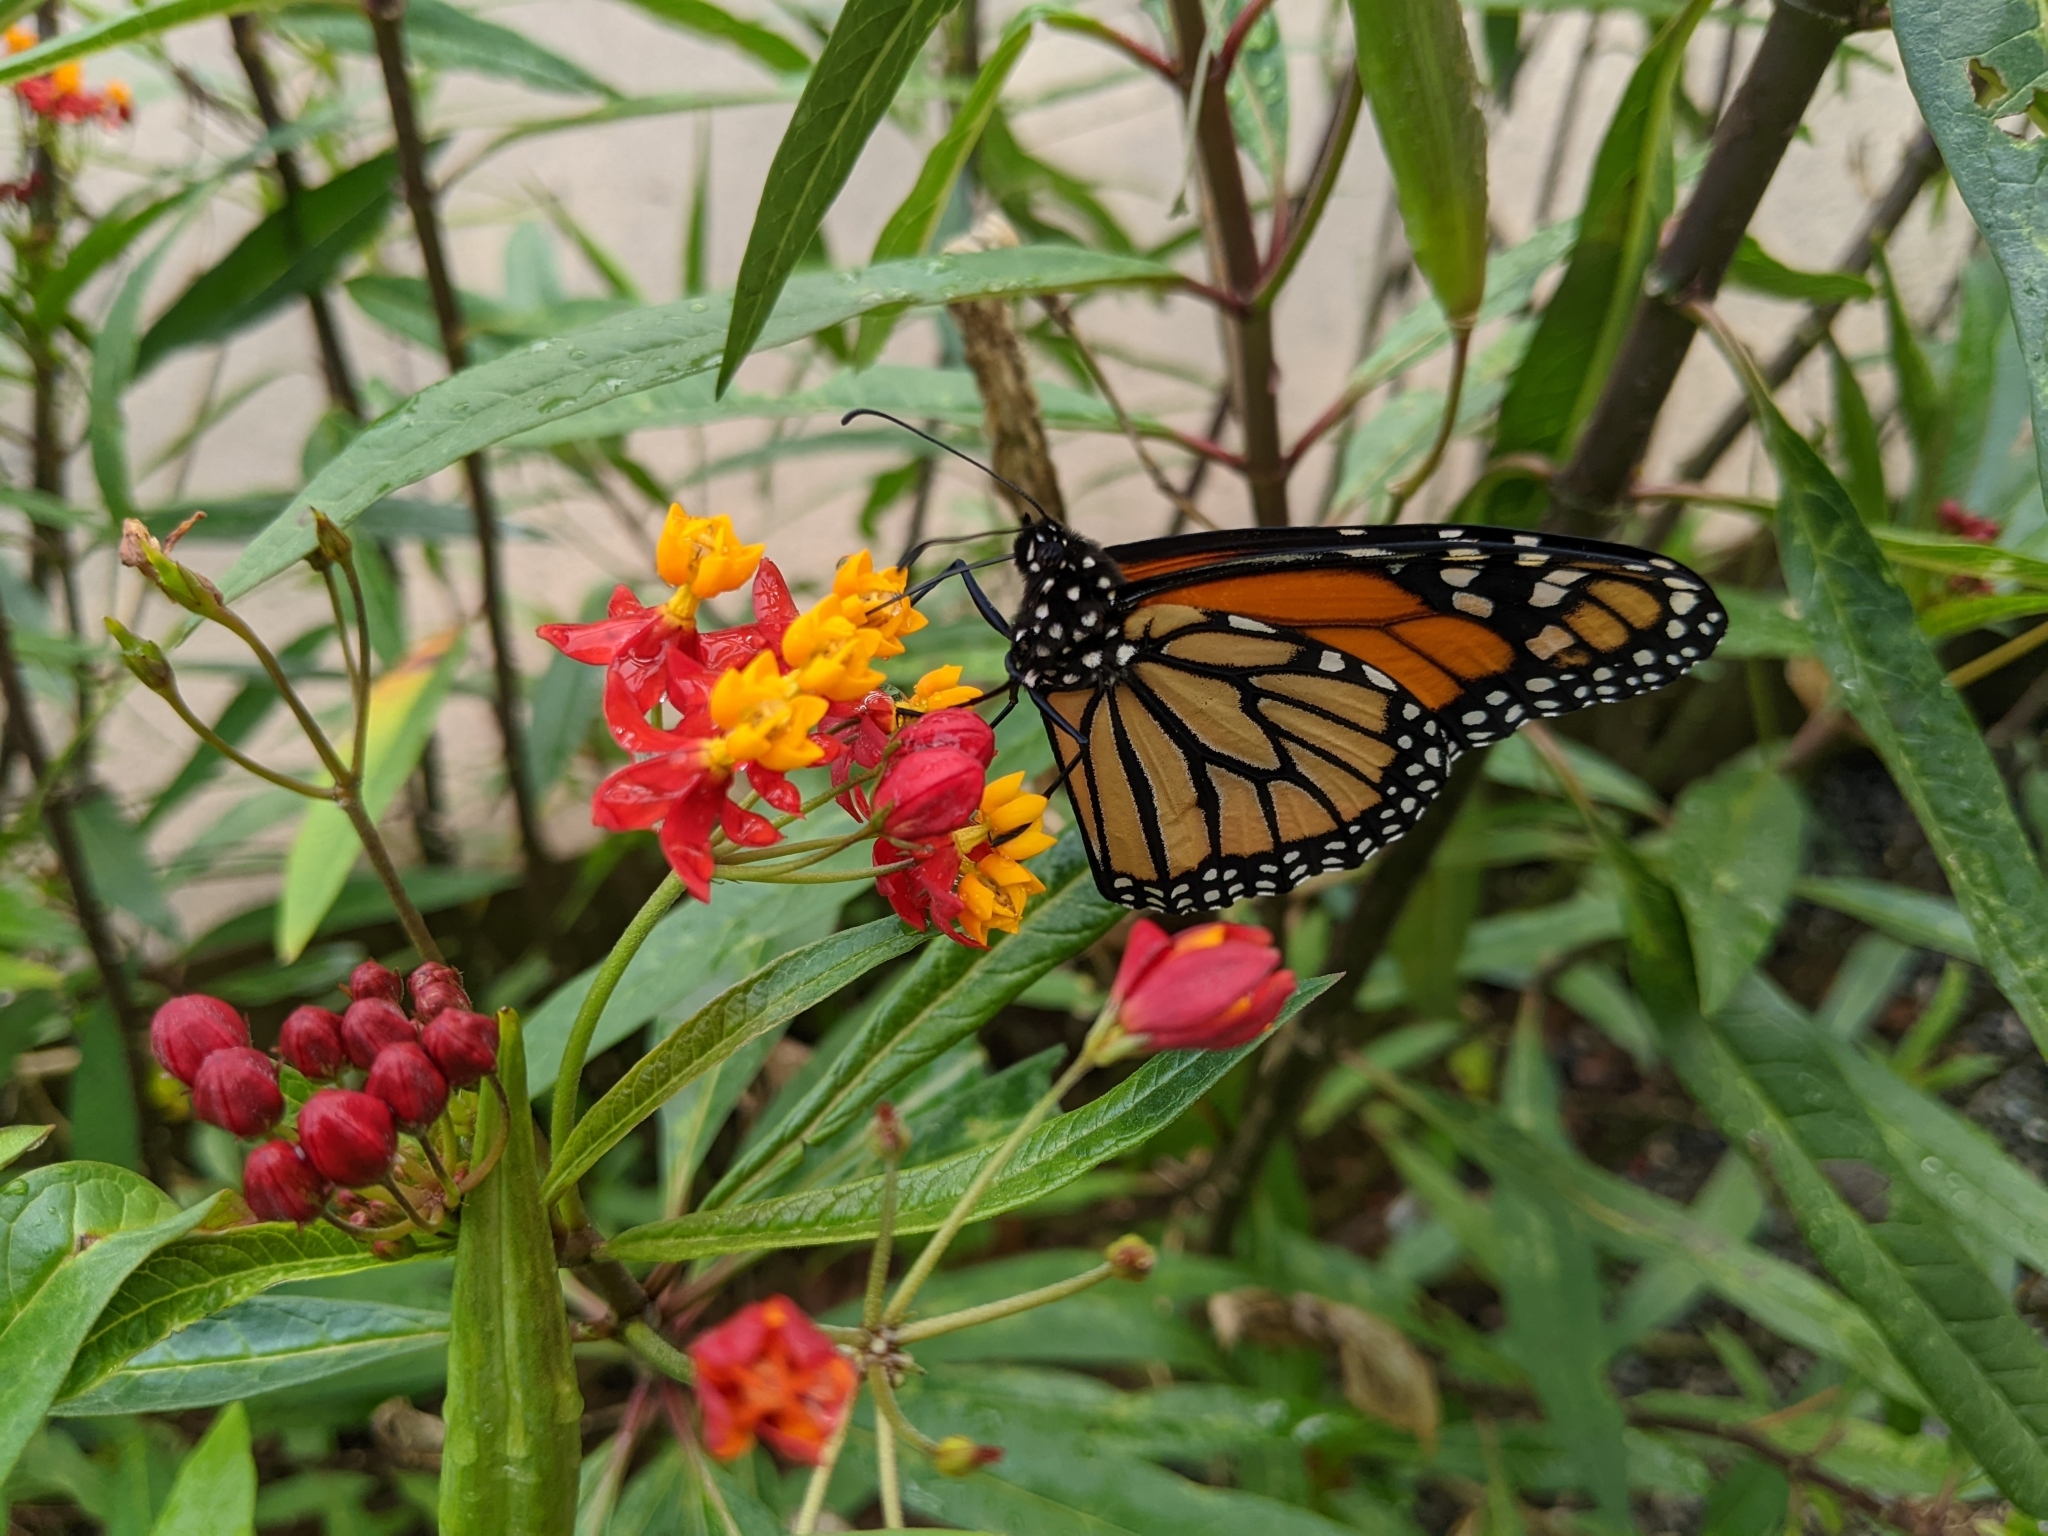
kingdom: Animalia
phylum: Arthropoda
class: Insecta
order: Lepidoptera
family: Nymphalidae
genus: Danaus
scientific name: Danaus plexippus
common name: Monarch
